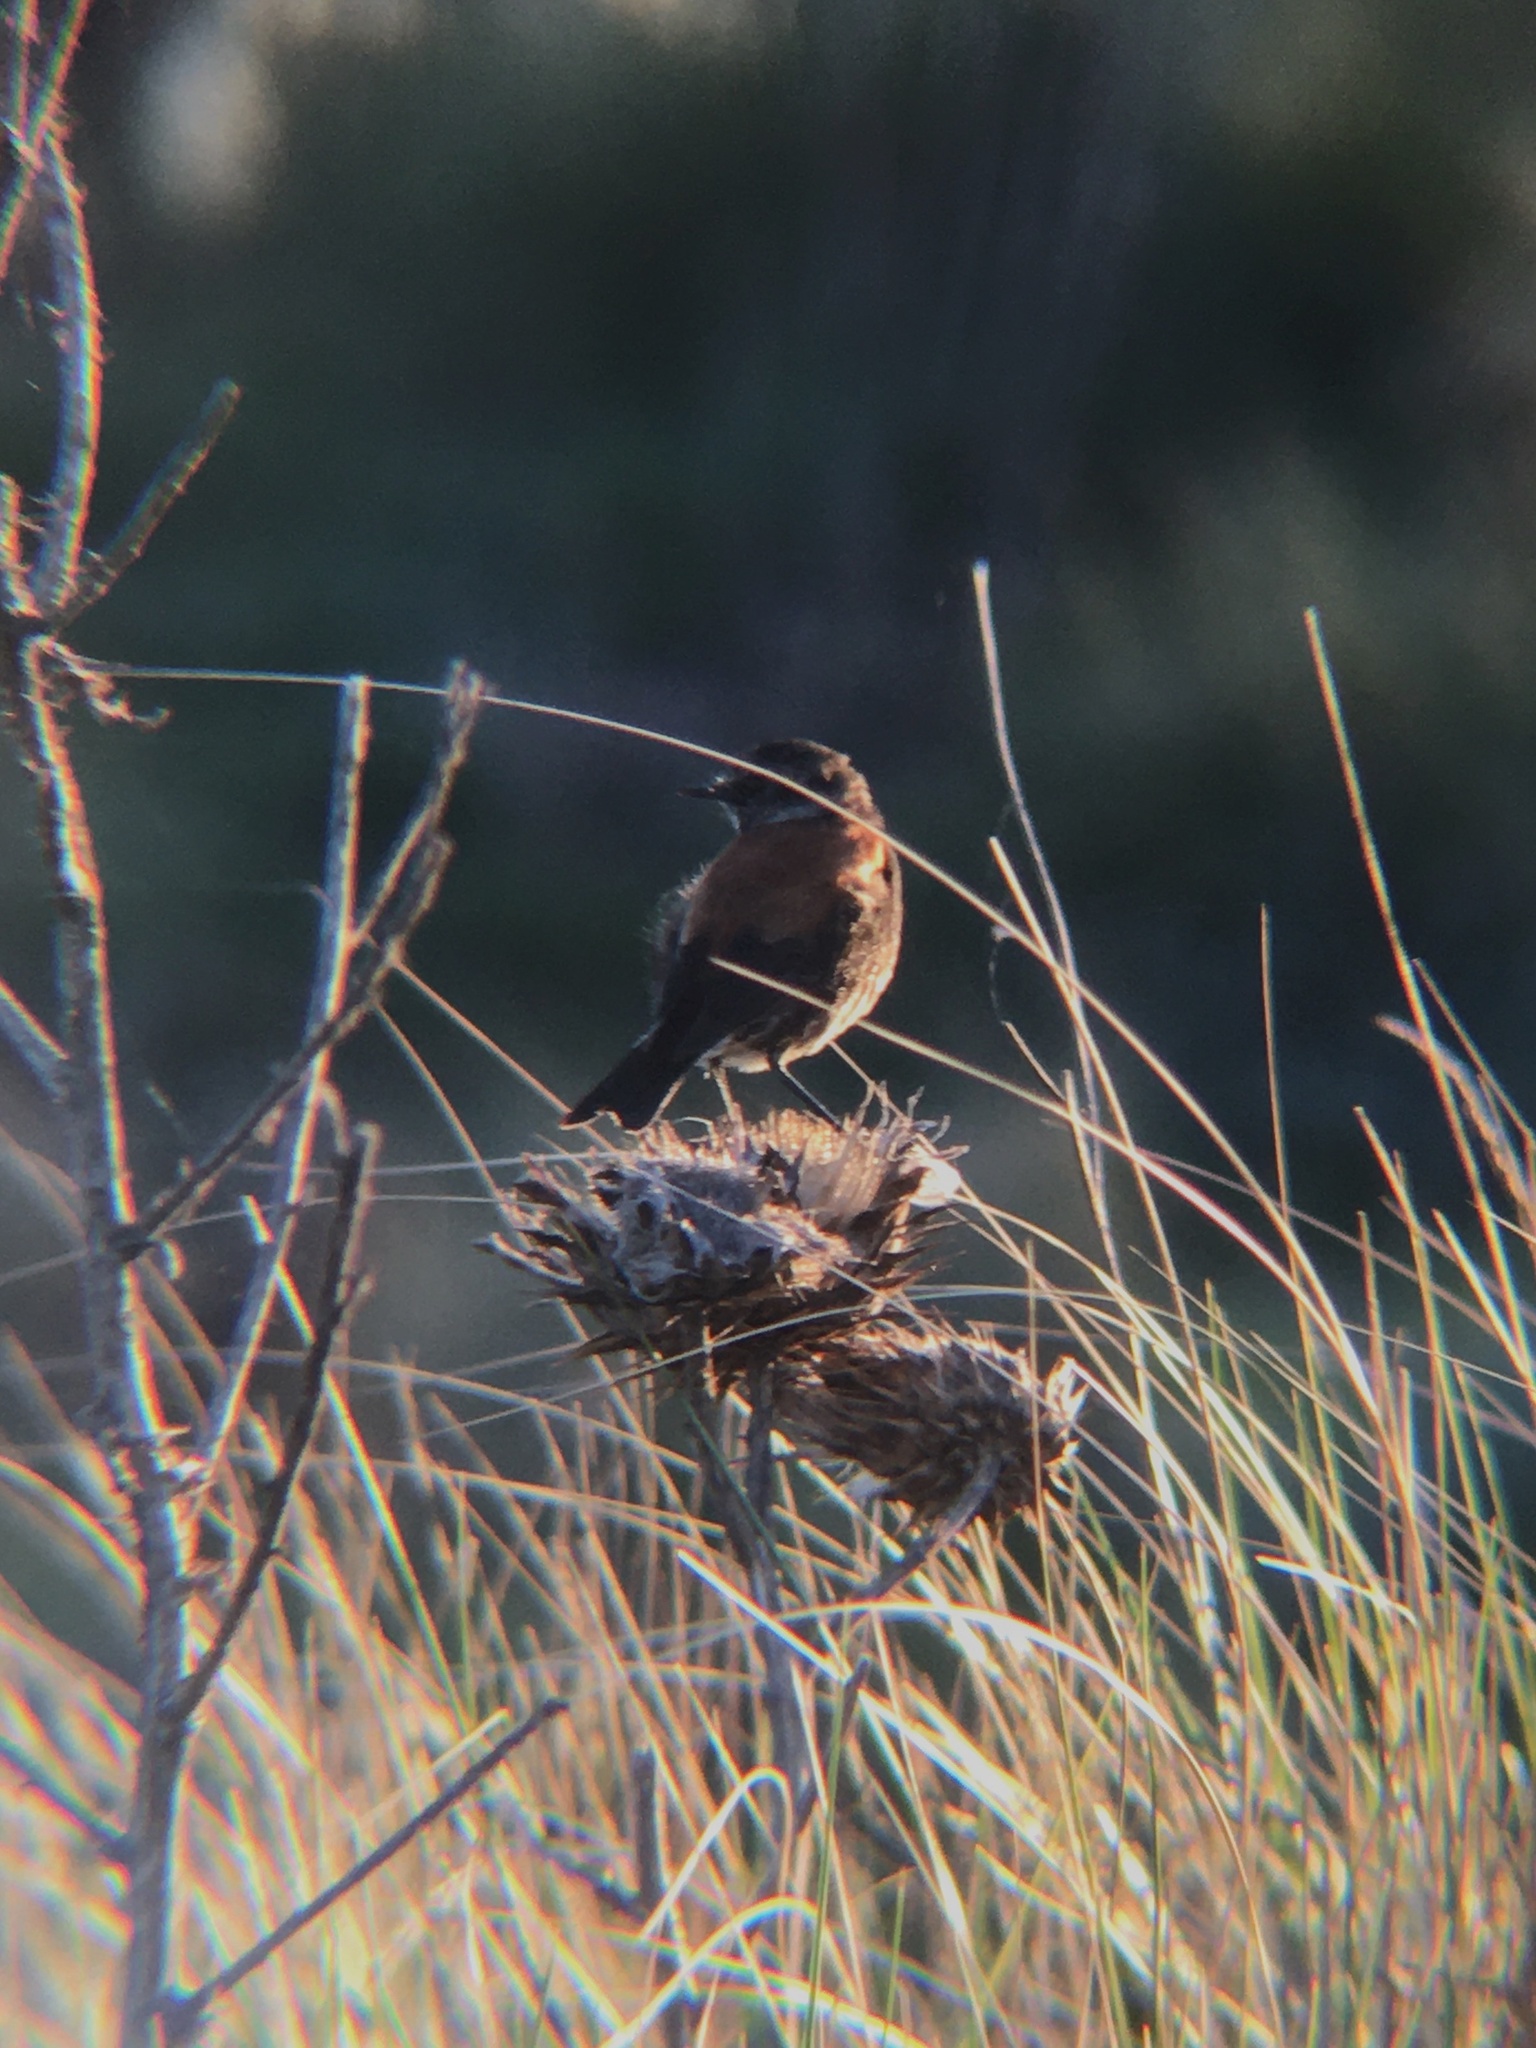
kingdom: Animalia
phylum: Chordata
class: Aves
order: Passeriformes
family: Tyrannidae
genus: Lessonia
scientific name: Lessonia rufa
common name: Austral negrito
